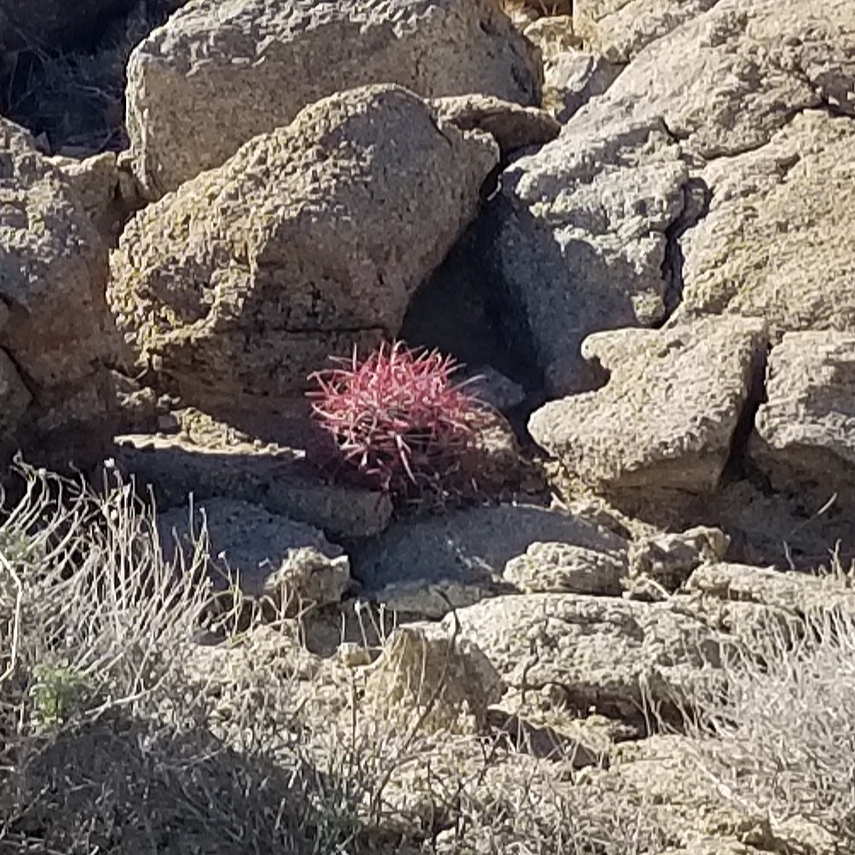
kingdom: Plantae
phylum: Tracheophyta
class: Magnoliopsida
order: Caryophyllales
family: Cactaceae
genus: Ferocactus
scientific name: Ferocactus cylindraceus
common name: California barrel cactus
